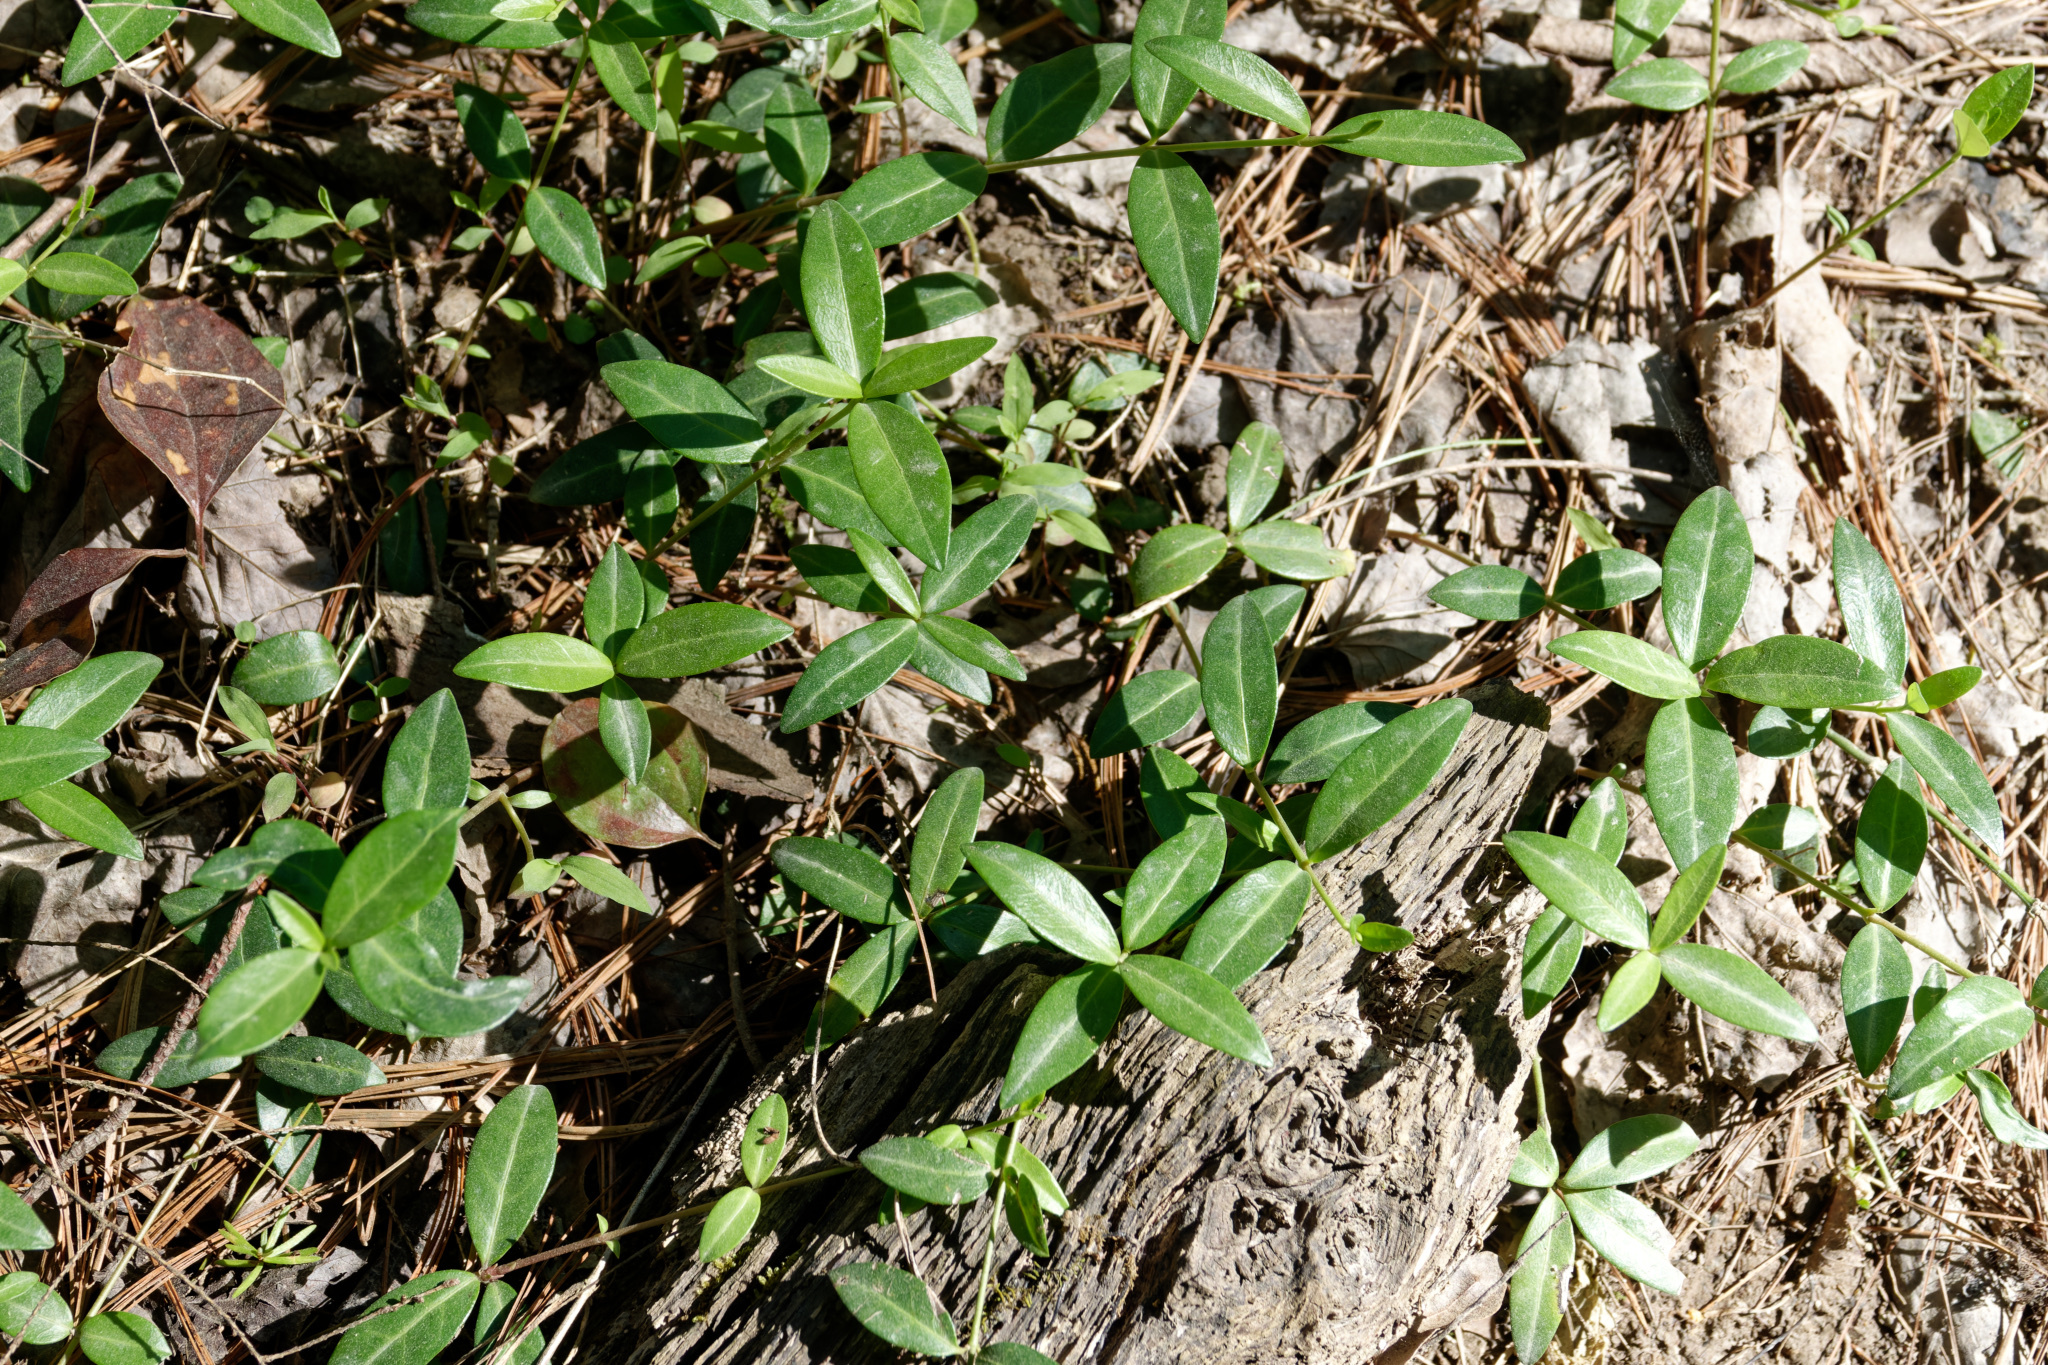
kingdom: Plantae
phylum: Tracheophyta
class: Magnoliopsida
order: Gentianales
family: Apocynaceae
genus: Vinca
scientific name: Vinca minor
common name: Lesser periwinkle
